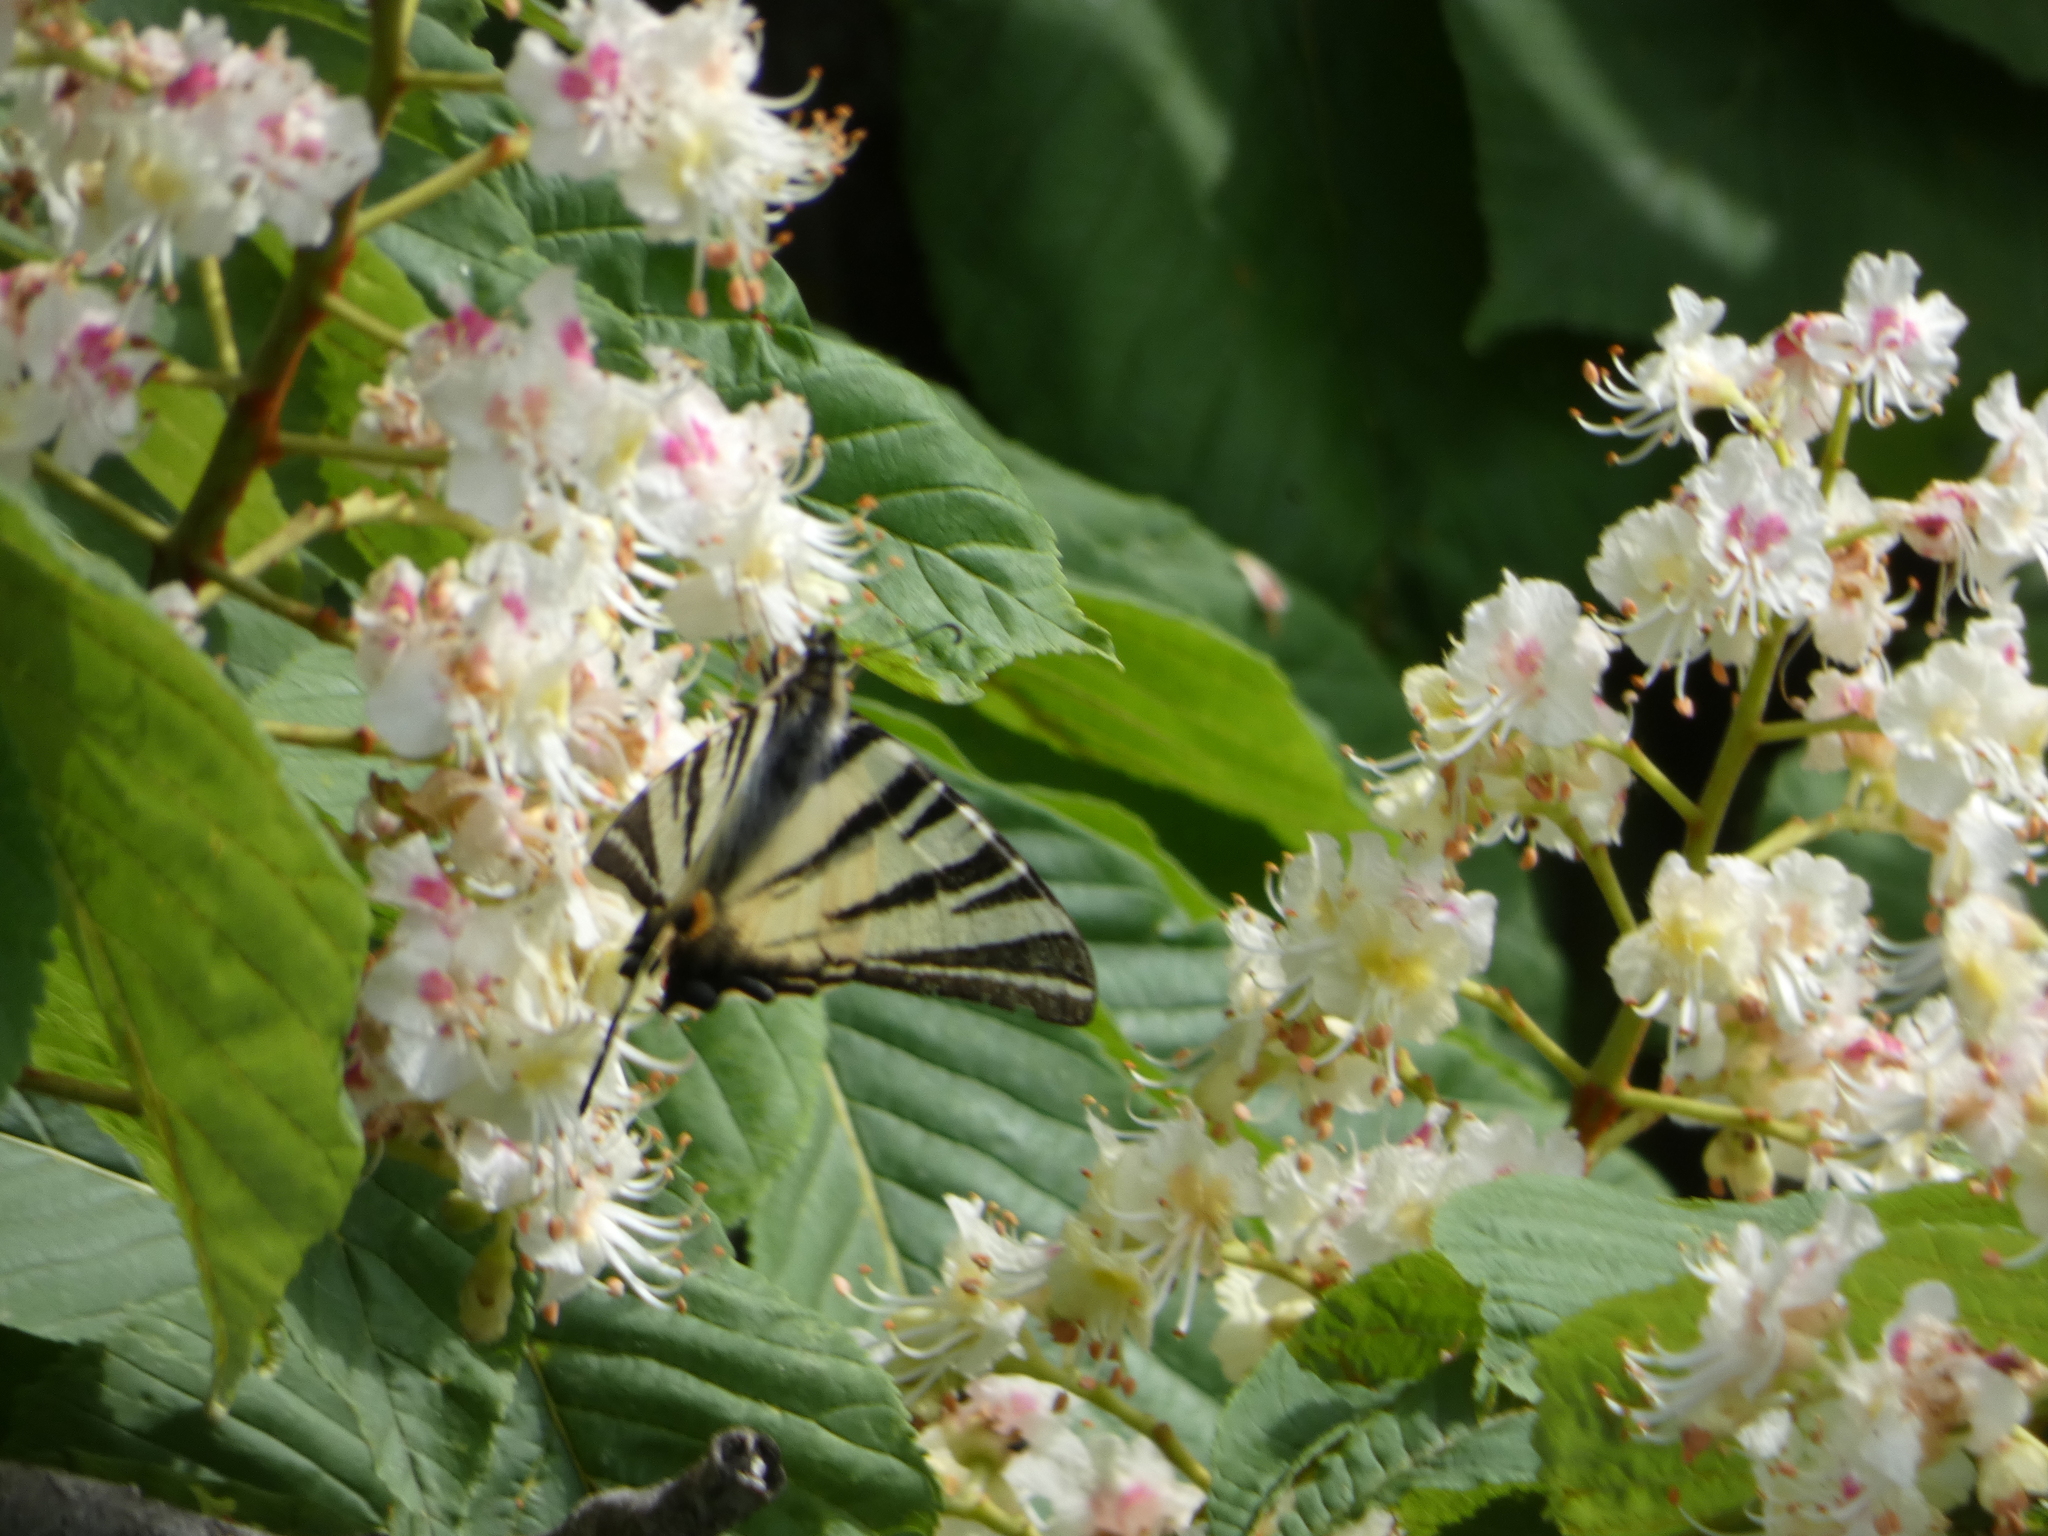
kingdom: Animalia
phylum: Arthropoda
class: Insecta
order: Lepidoptera
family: Papilionidae
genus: Iphiclides
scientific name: Iphiclides podalirius
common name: Scarce swallowtail
